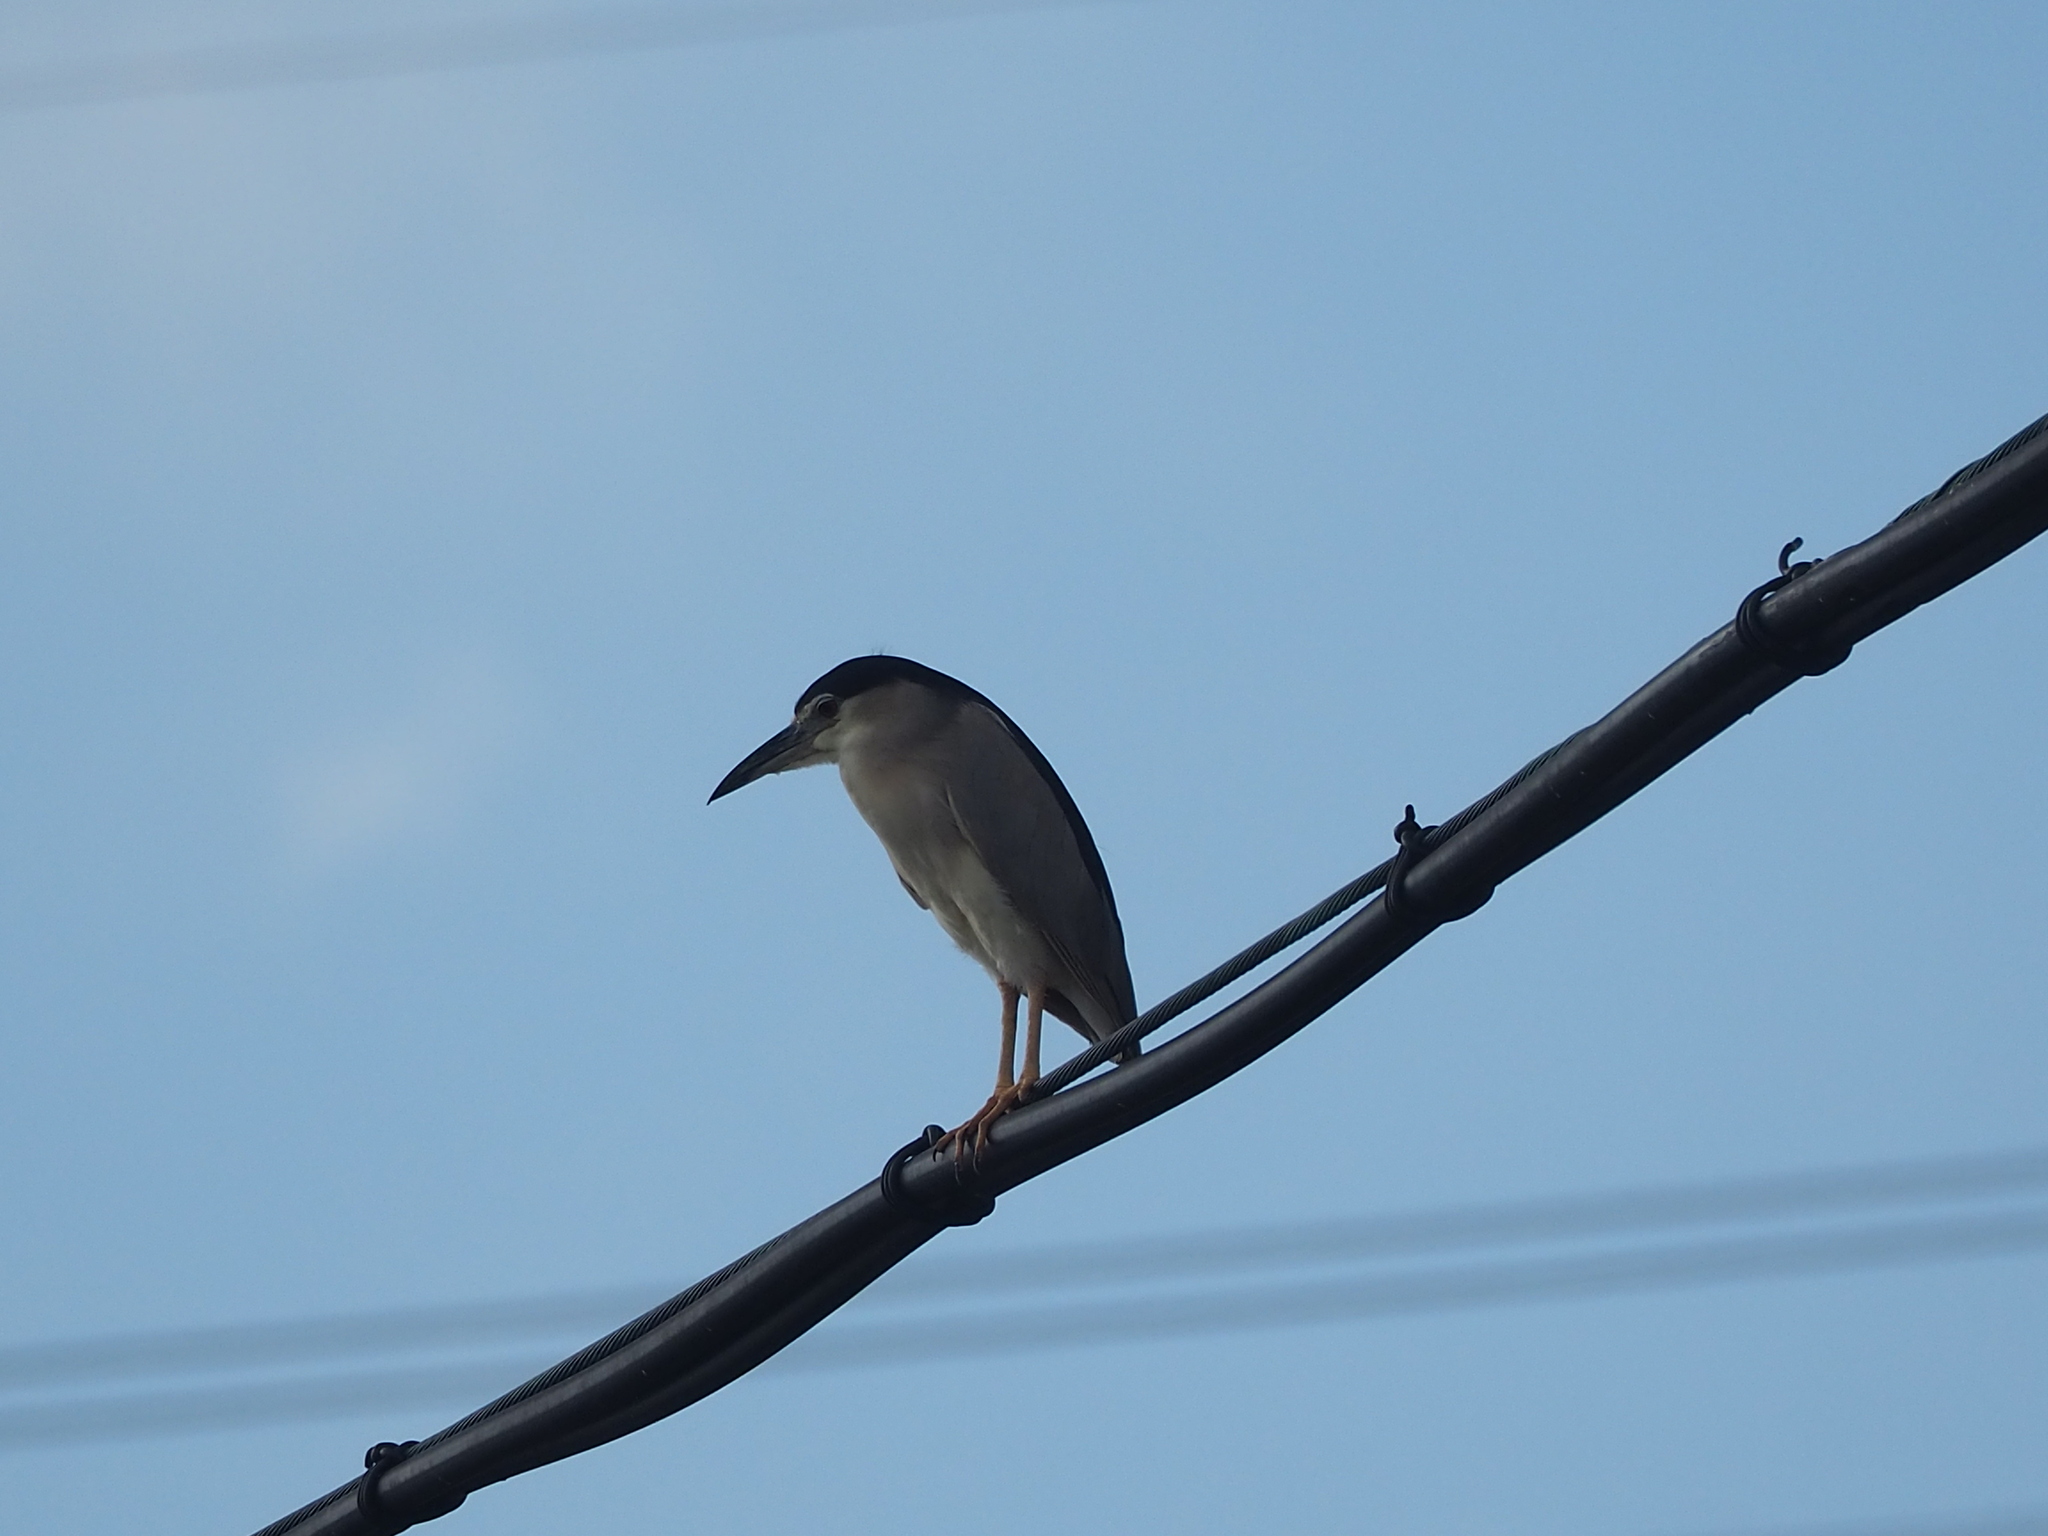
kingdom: Animalia
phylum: Chordata
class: Aves
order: Pelecaniformes
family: Ardeidae
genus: Nycticorax
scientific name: Nycticorax nycticorax
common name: Black-crowned night heron
